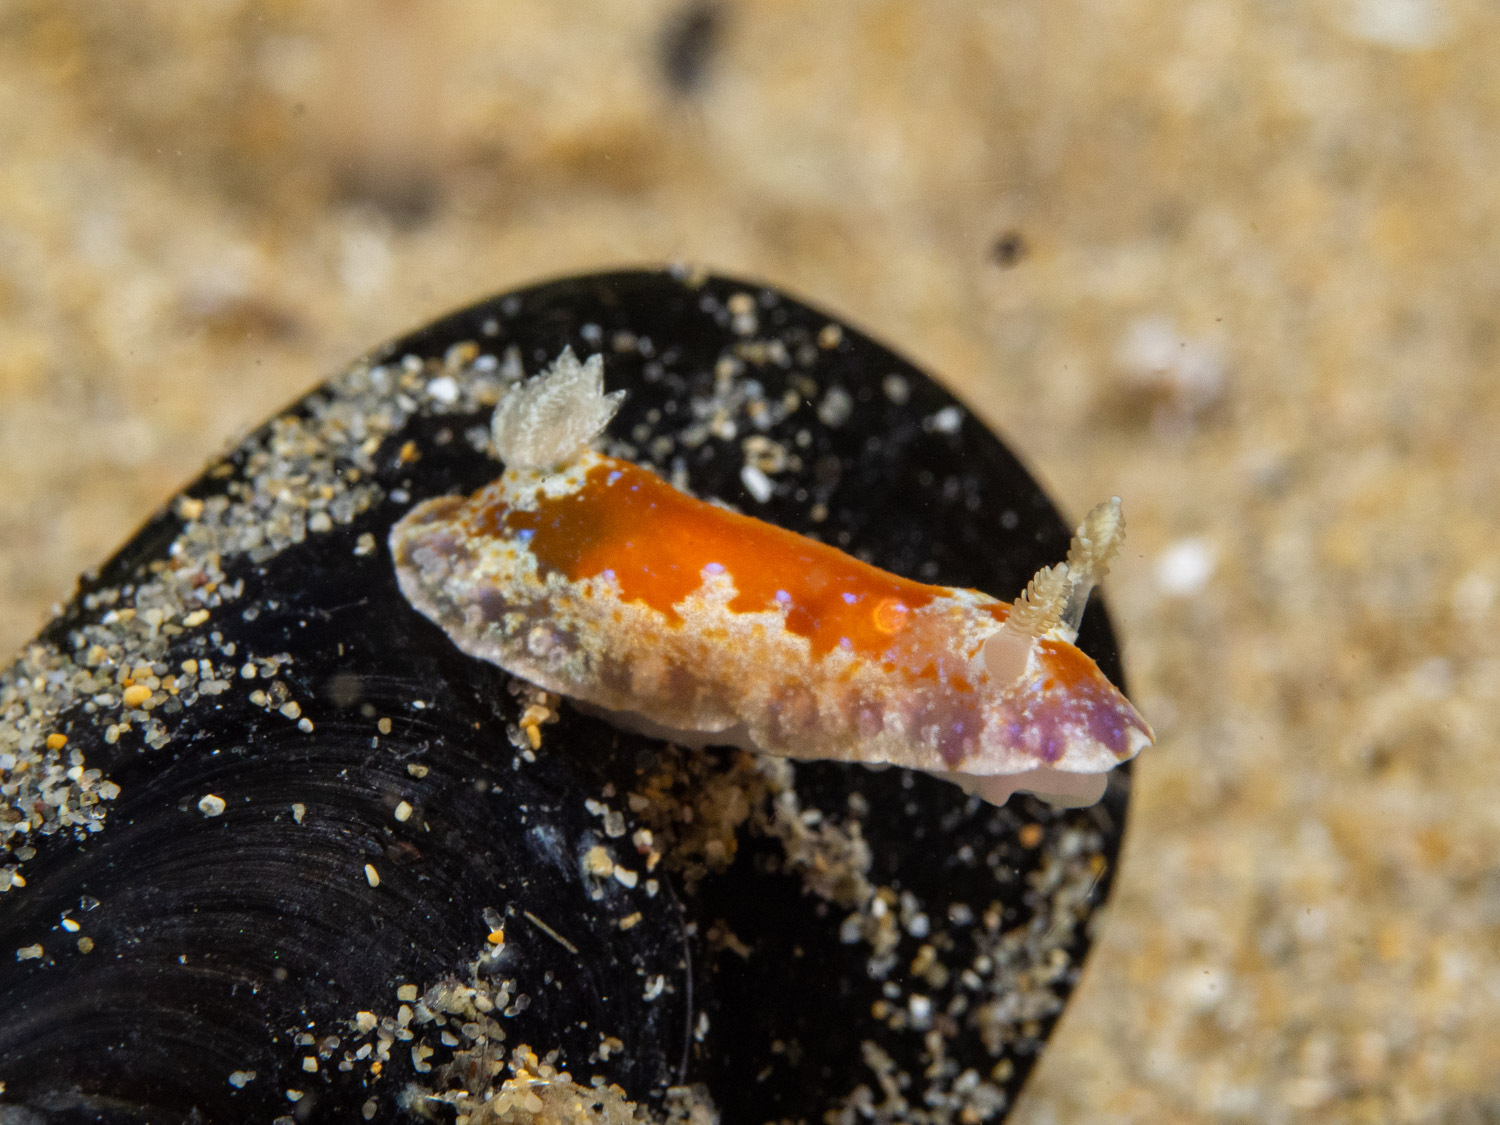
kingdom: Animalia
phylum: Mollusca
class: Gastropoda
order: Nudibranchia
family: Chromodorididae
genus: Chromodoris
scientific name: Chromodoris alternata
